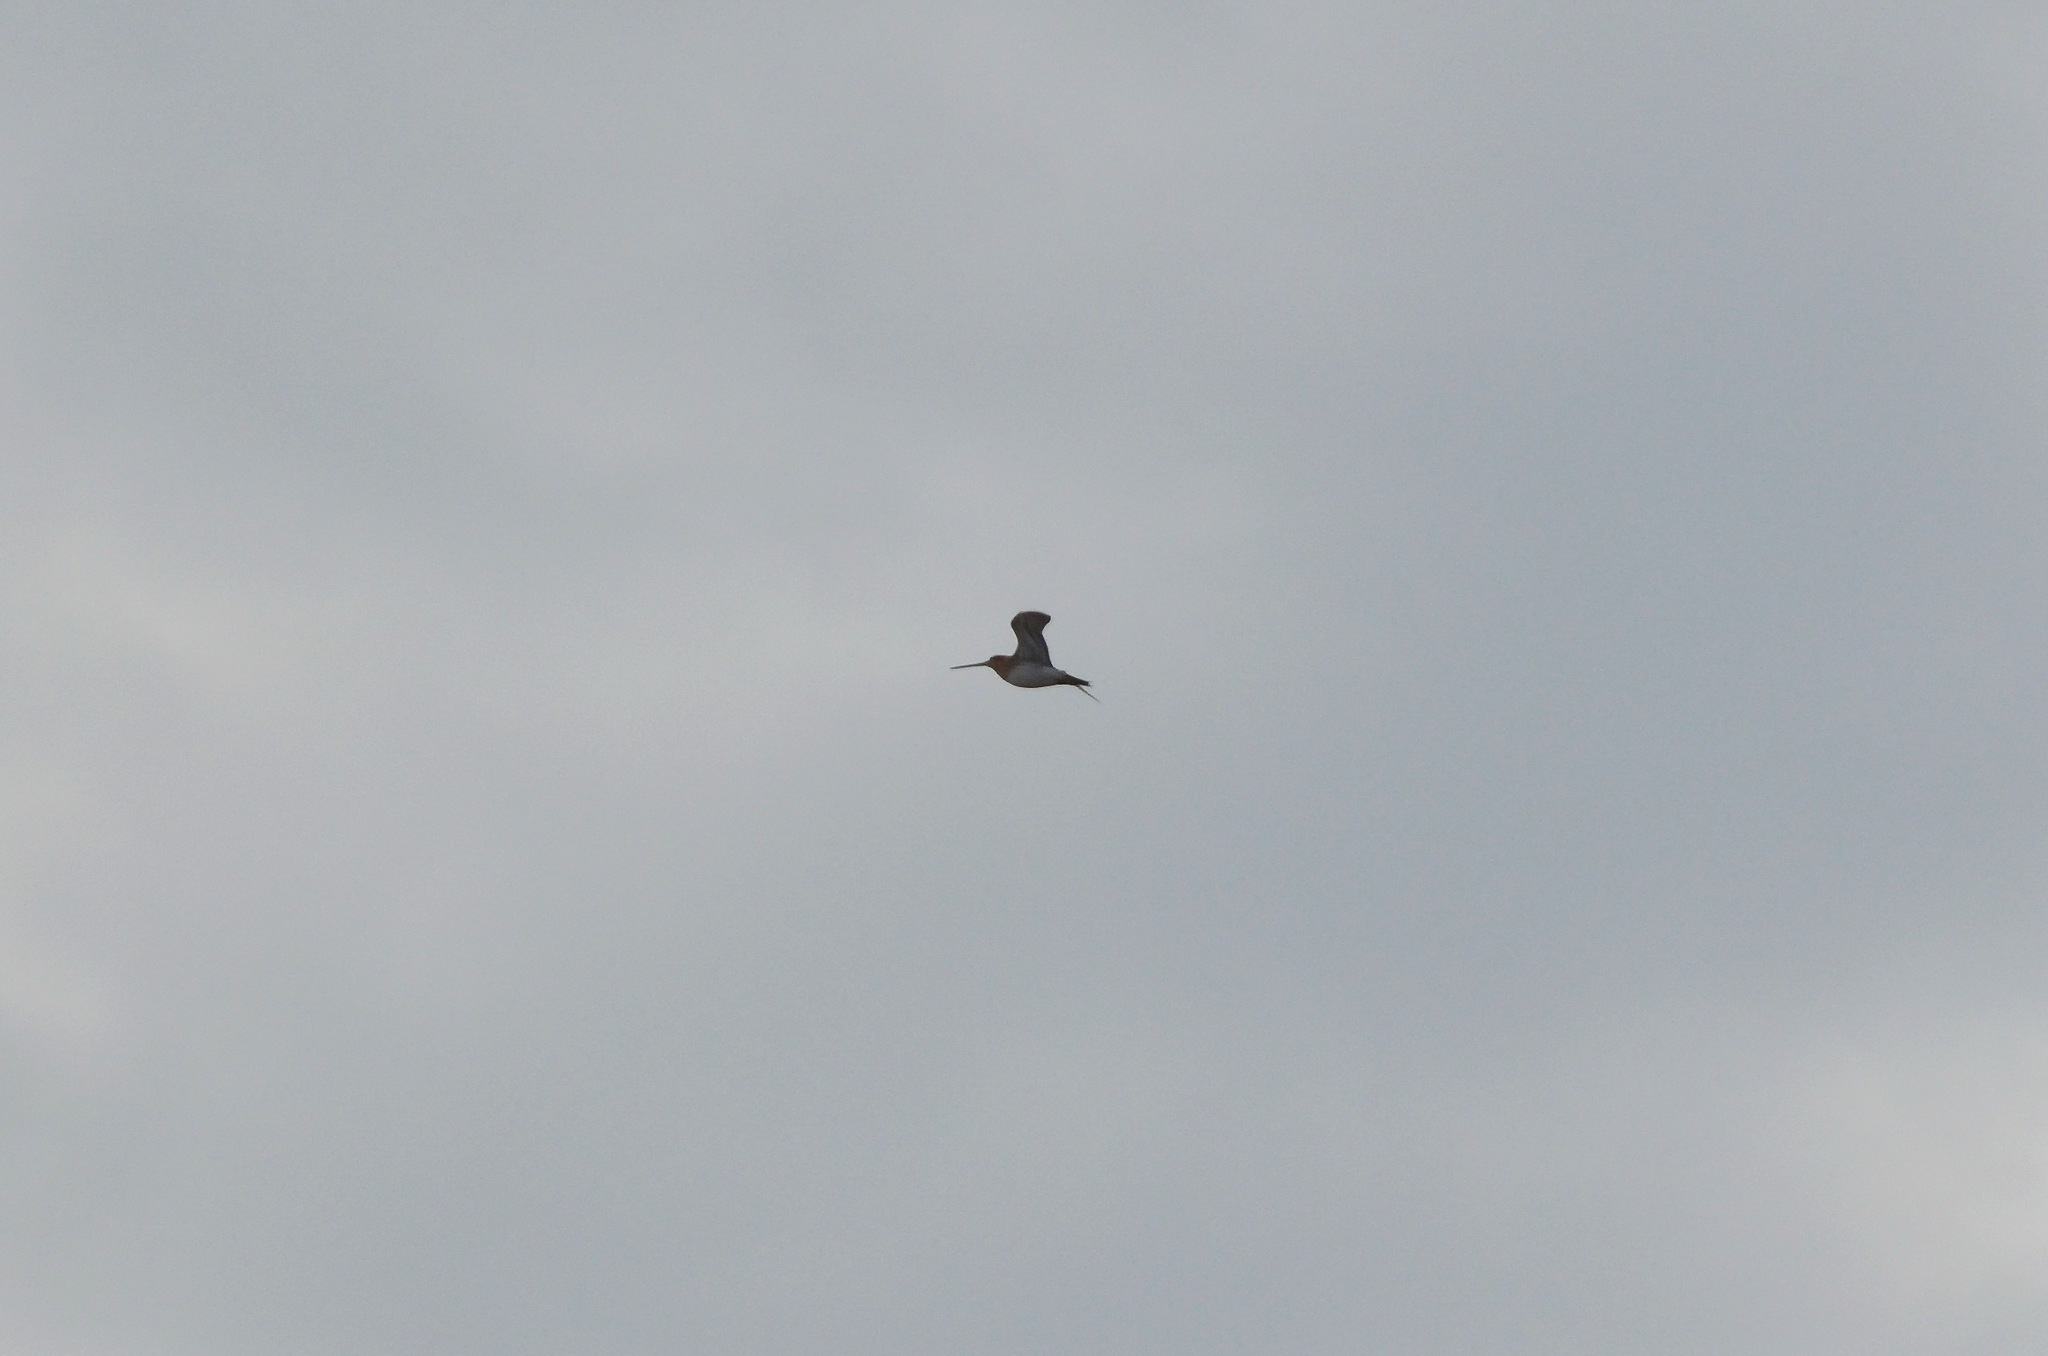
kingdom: Animalia
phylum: Chordata
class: Aves
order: Charadriiformes
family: Scolopacidae
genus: Gallinago
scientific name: Gallinago gallinago
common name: Common snipe
